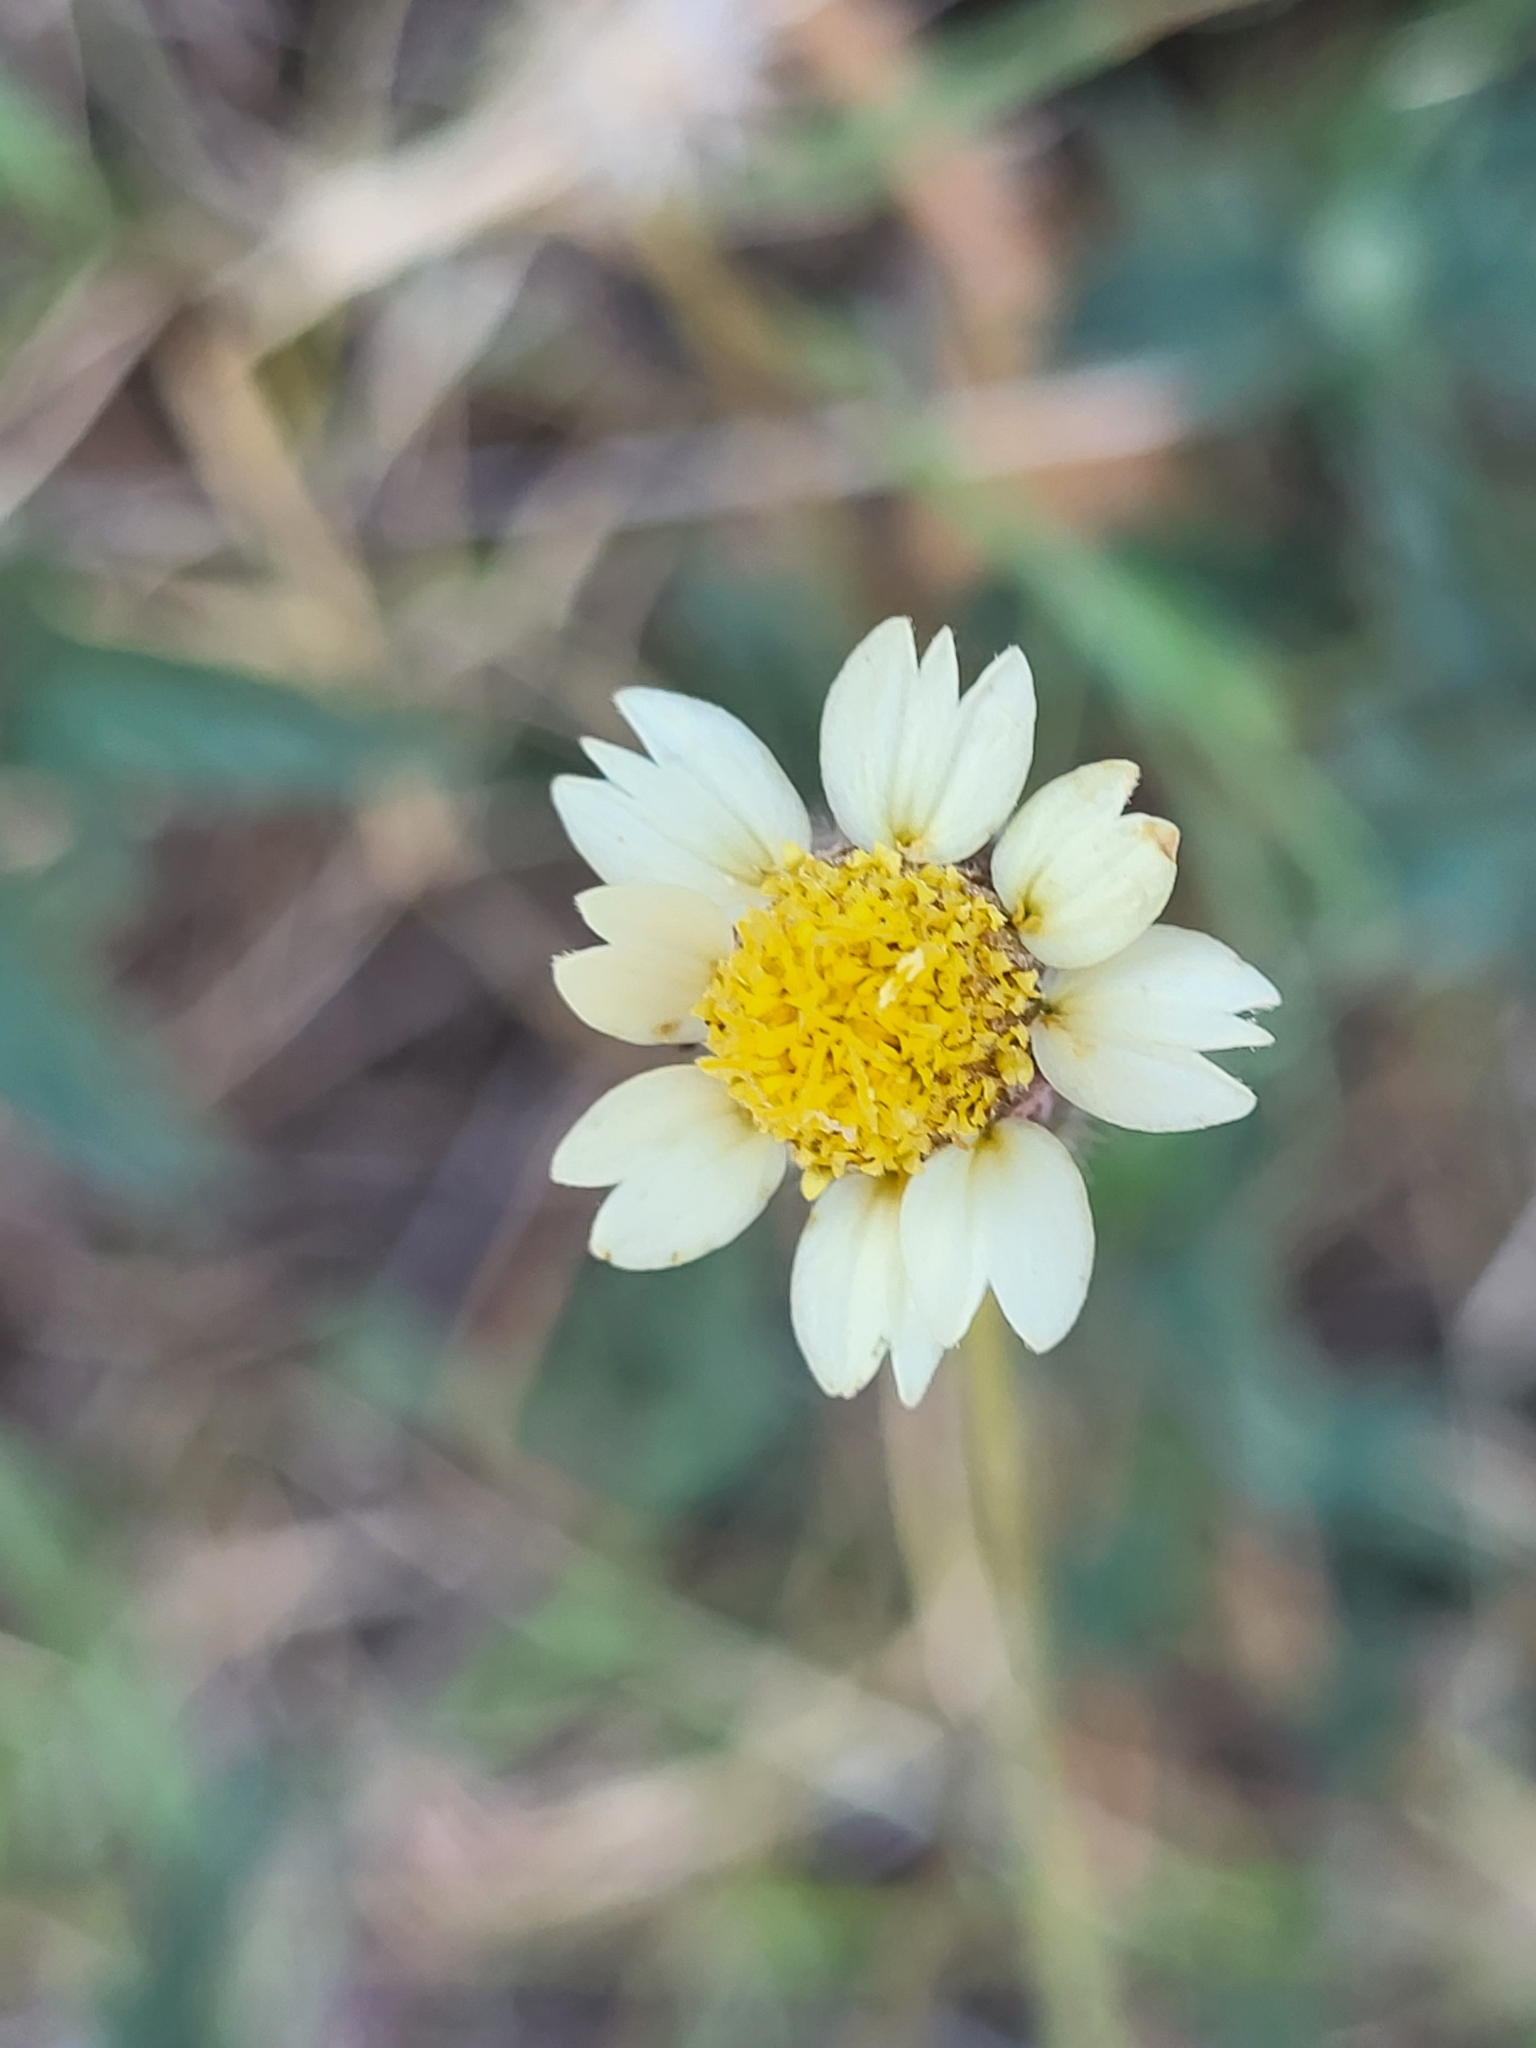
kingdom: Plantae
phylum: Tracheophyta
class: Magnoliopsida
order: Asterales
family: Asteraceae
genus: Tridax
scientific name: Tridax procumbens
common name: Coatbuttons
